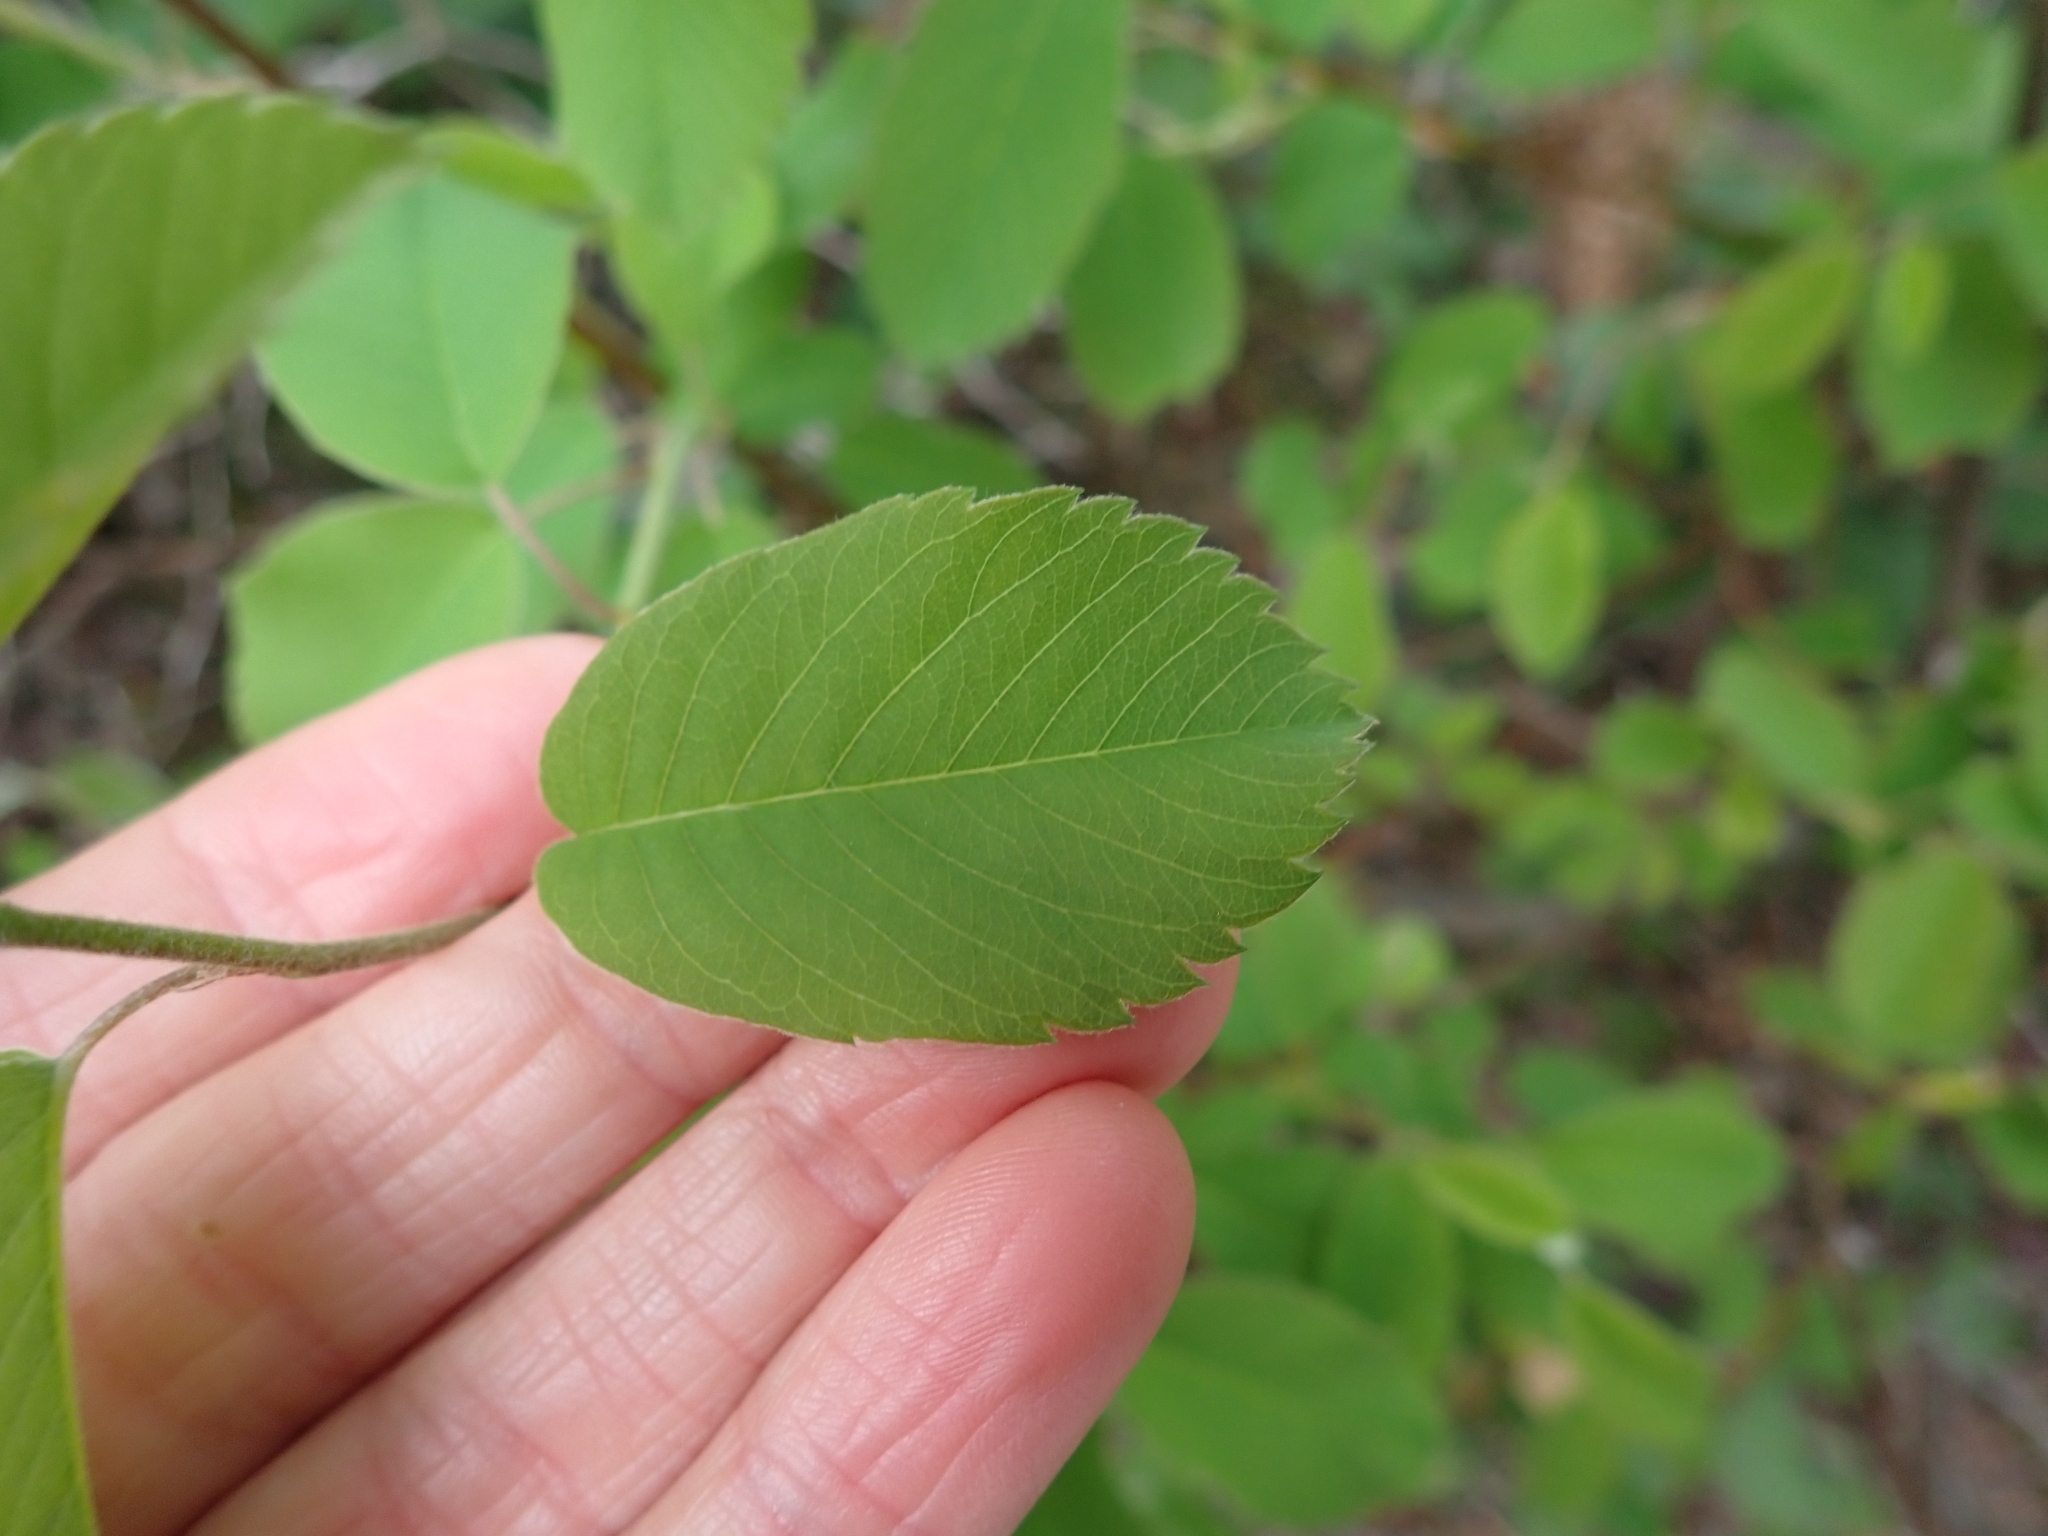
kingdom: Plantae
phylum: Tracheophyta
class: Magnoliopsida
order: Rosales
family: Rosaceae
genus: Amelanchier
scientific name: Amelanchier alnifolia
